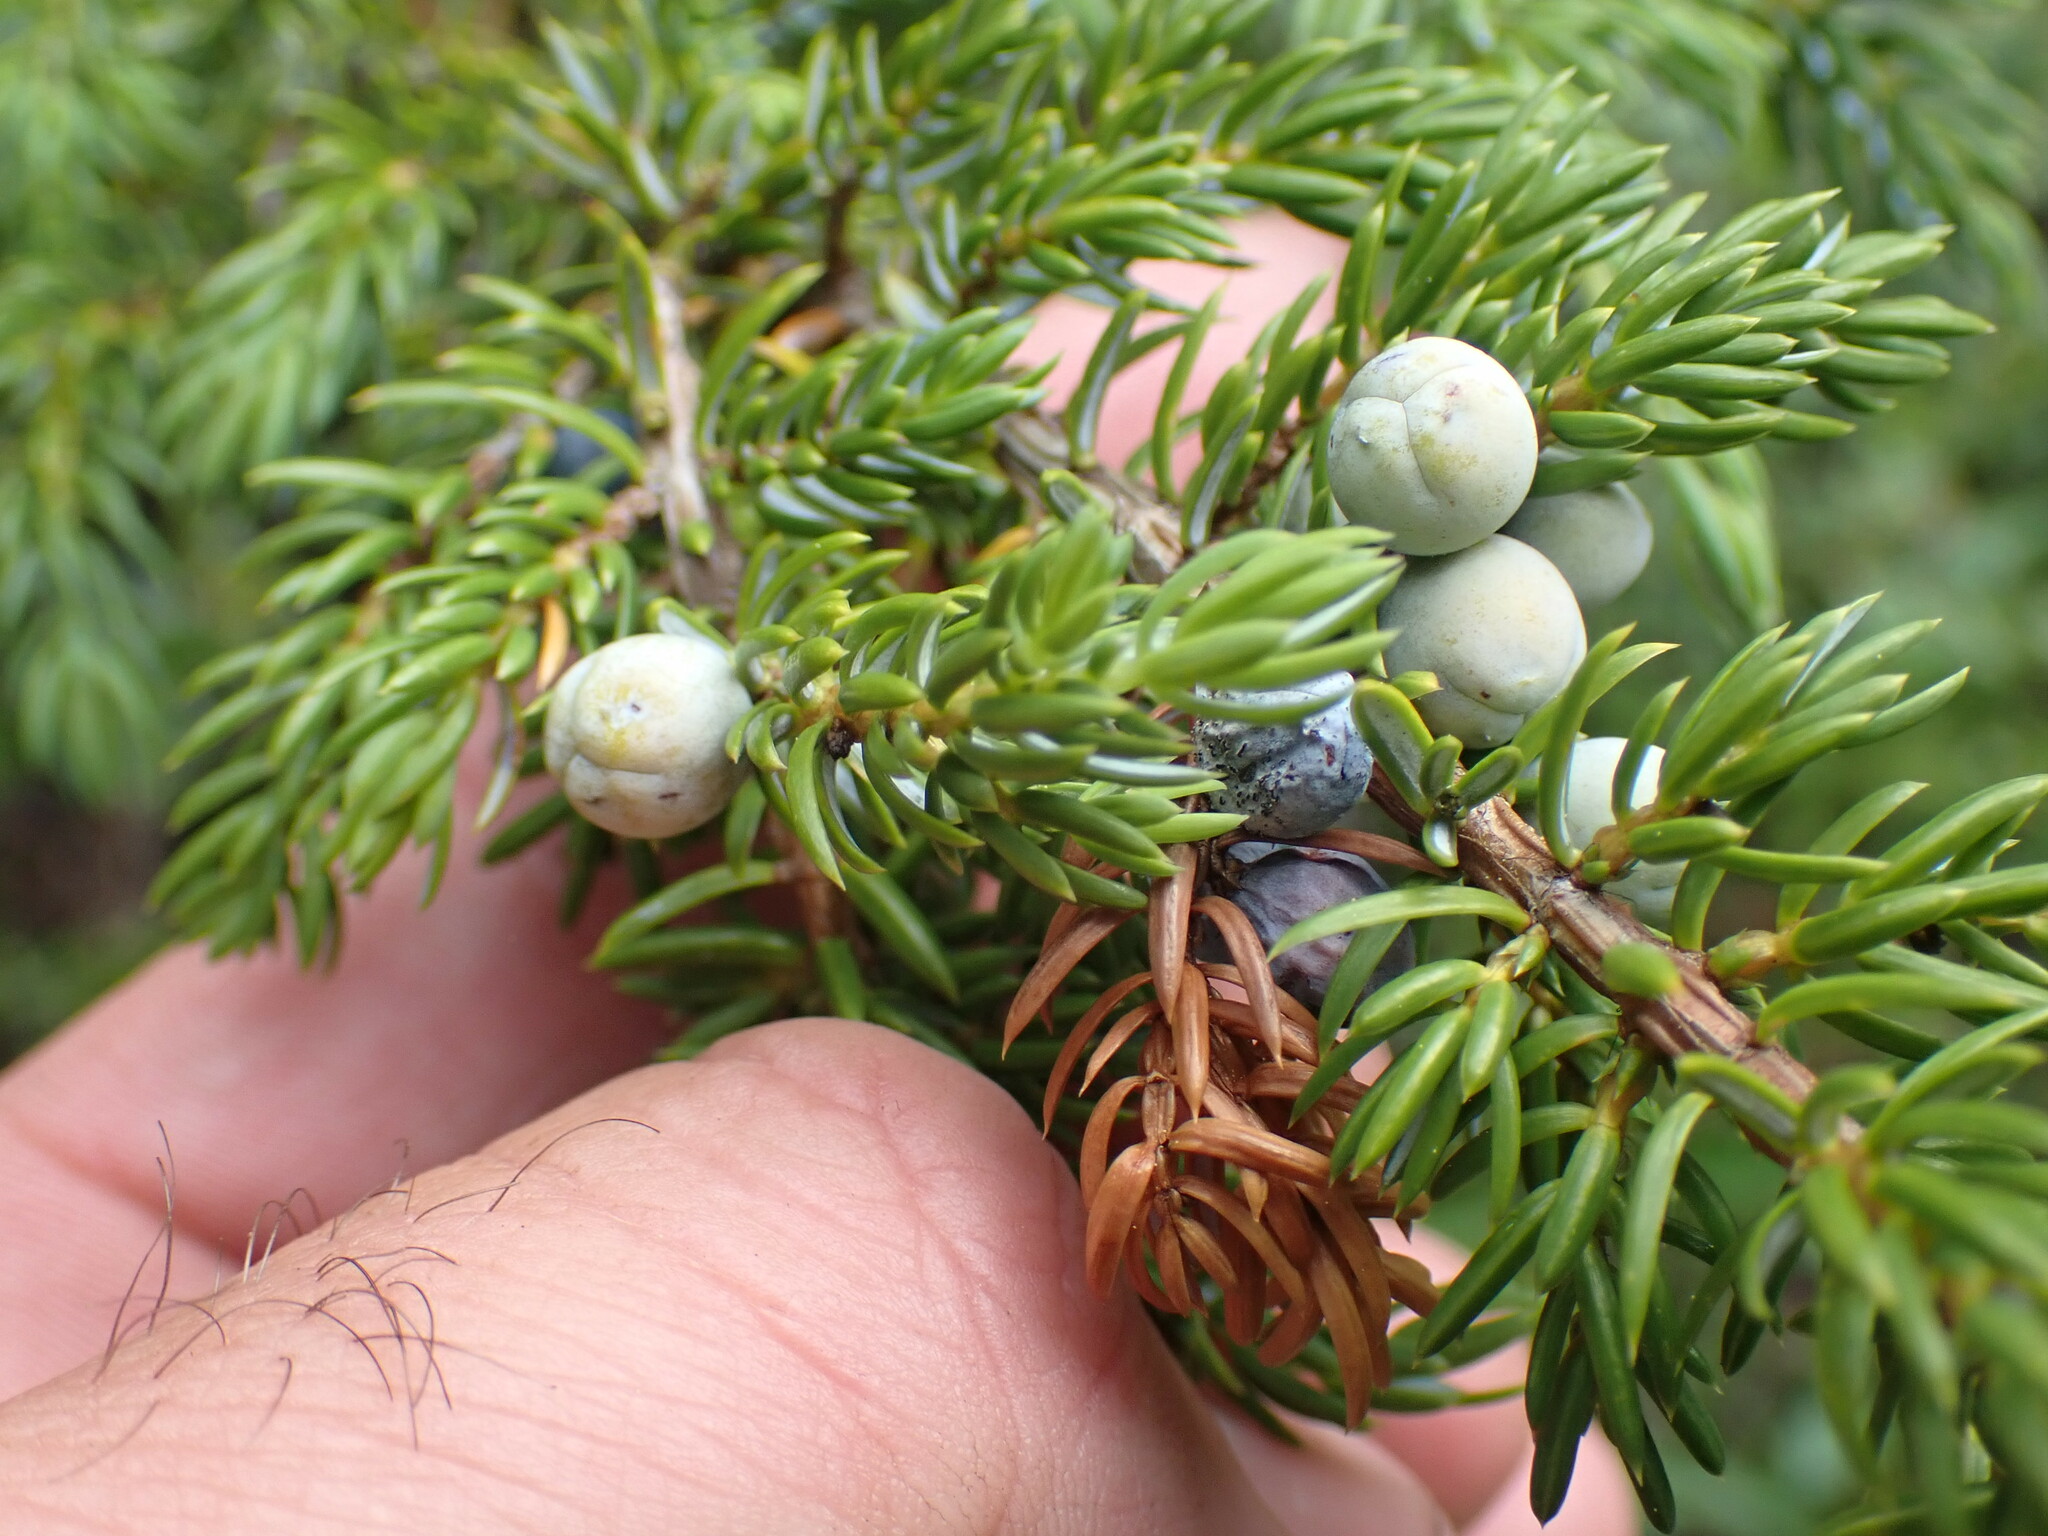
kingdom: Plantae
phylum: Tracheophyta
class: Pinopsida
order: Pinales
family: Cupressaceae
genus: Juniperus
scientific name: Juniperus communis
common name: Common juniper
